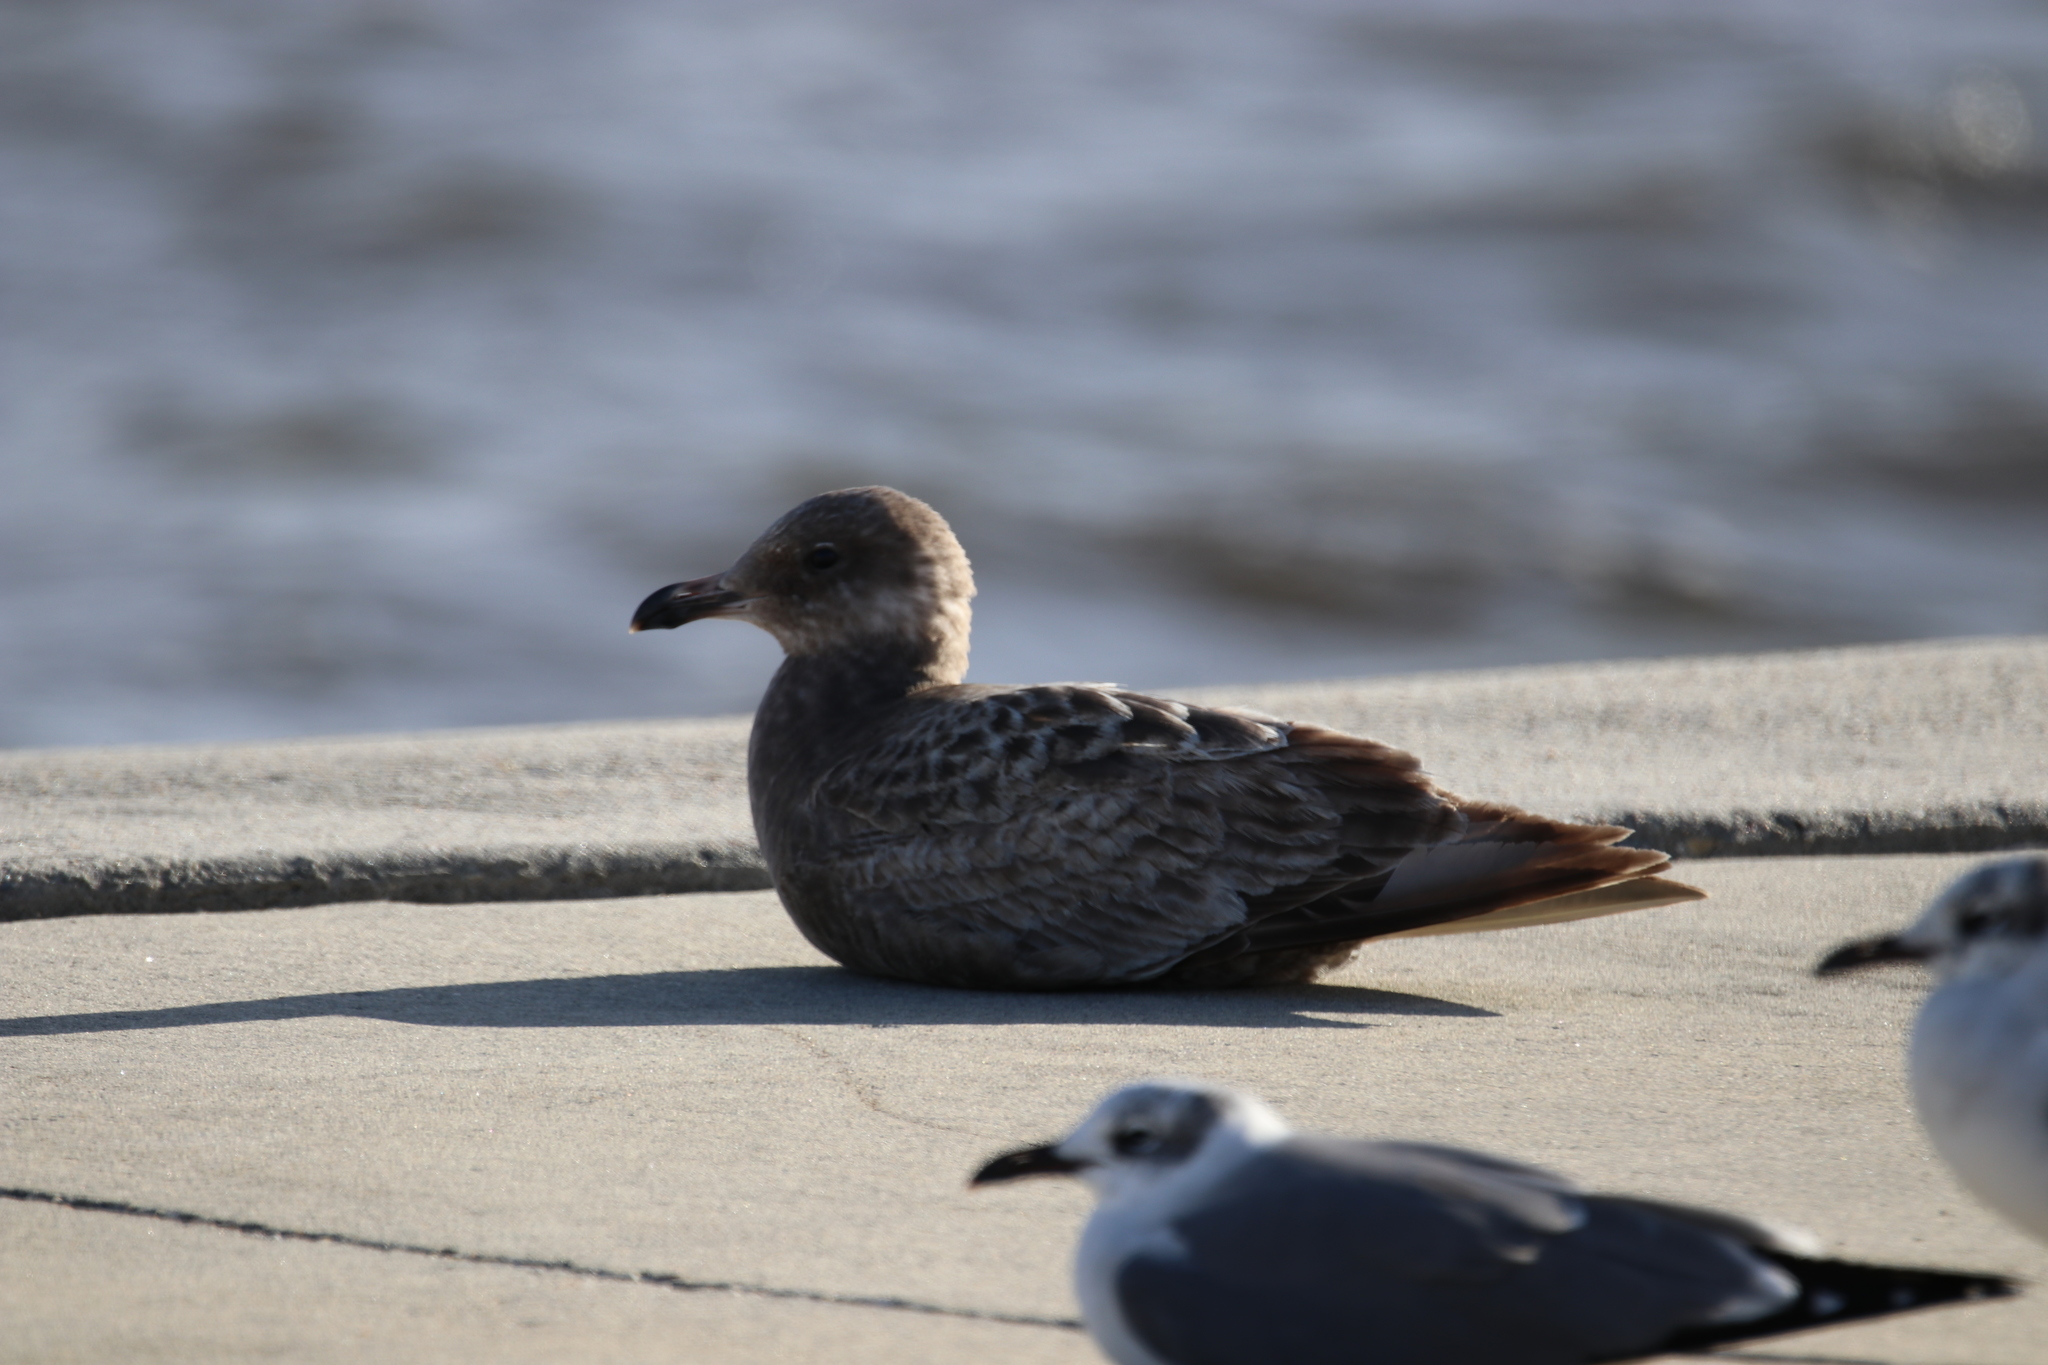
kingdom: Animalia
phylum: Chordata
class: Aves
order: Charadriiformes
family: Laridae
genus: Larus
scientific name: Larus argentatus
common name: Herring gull
